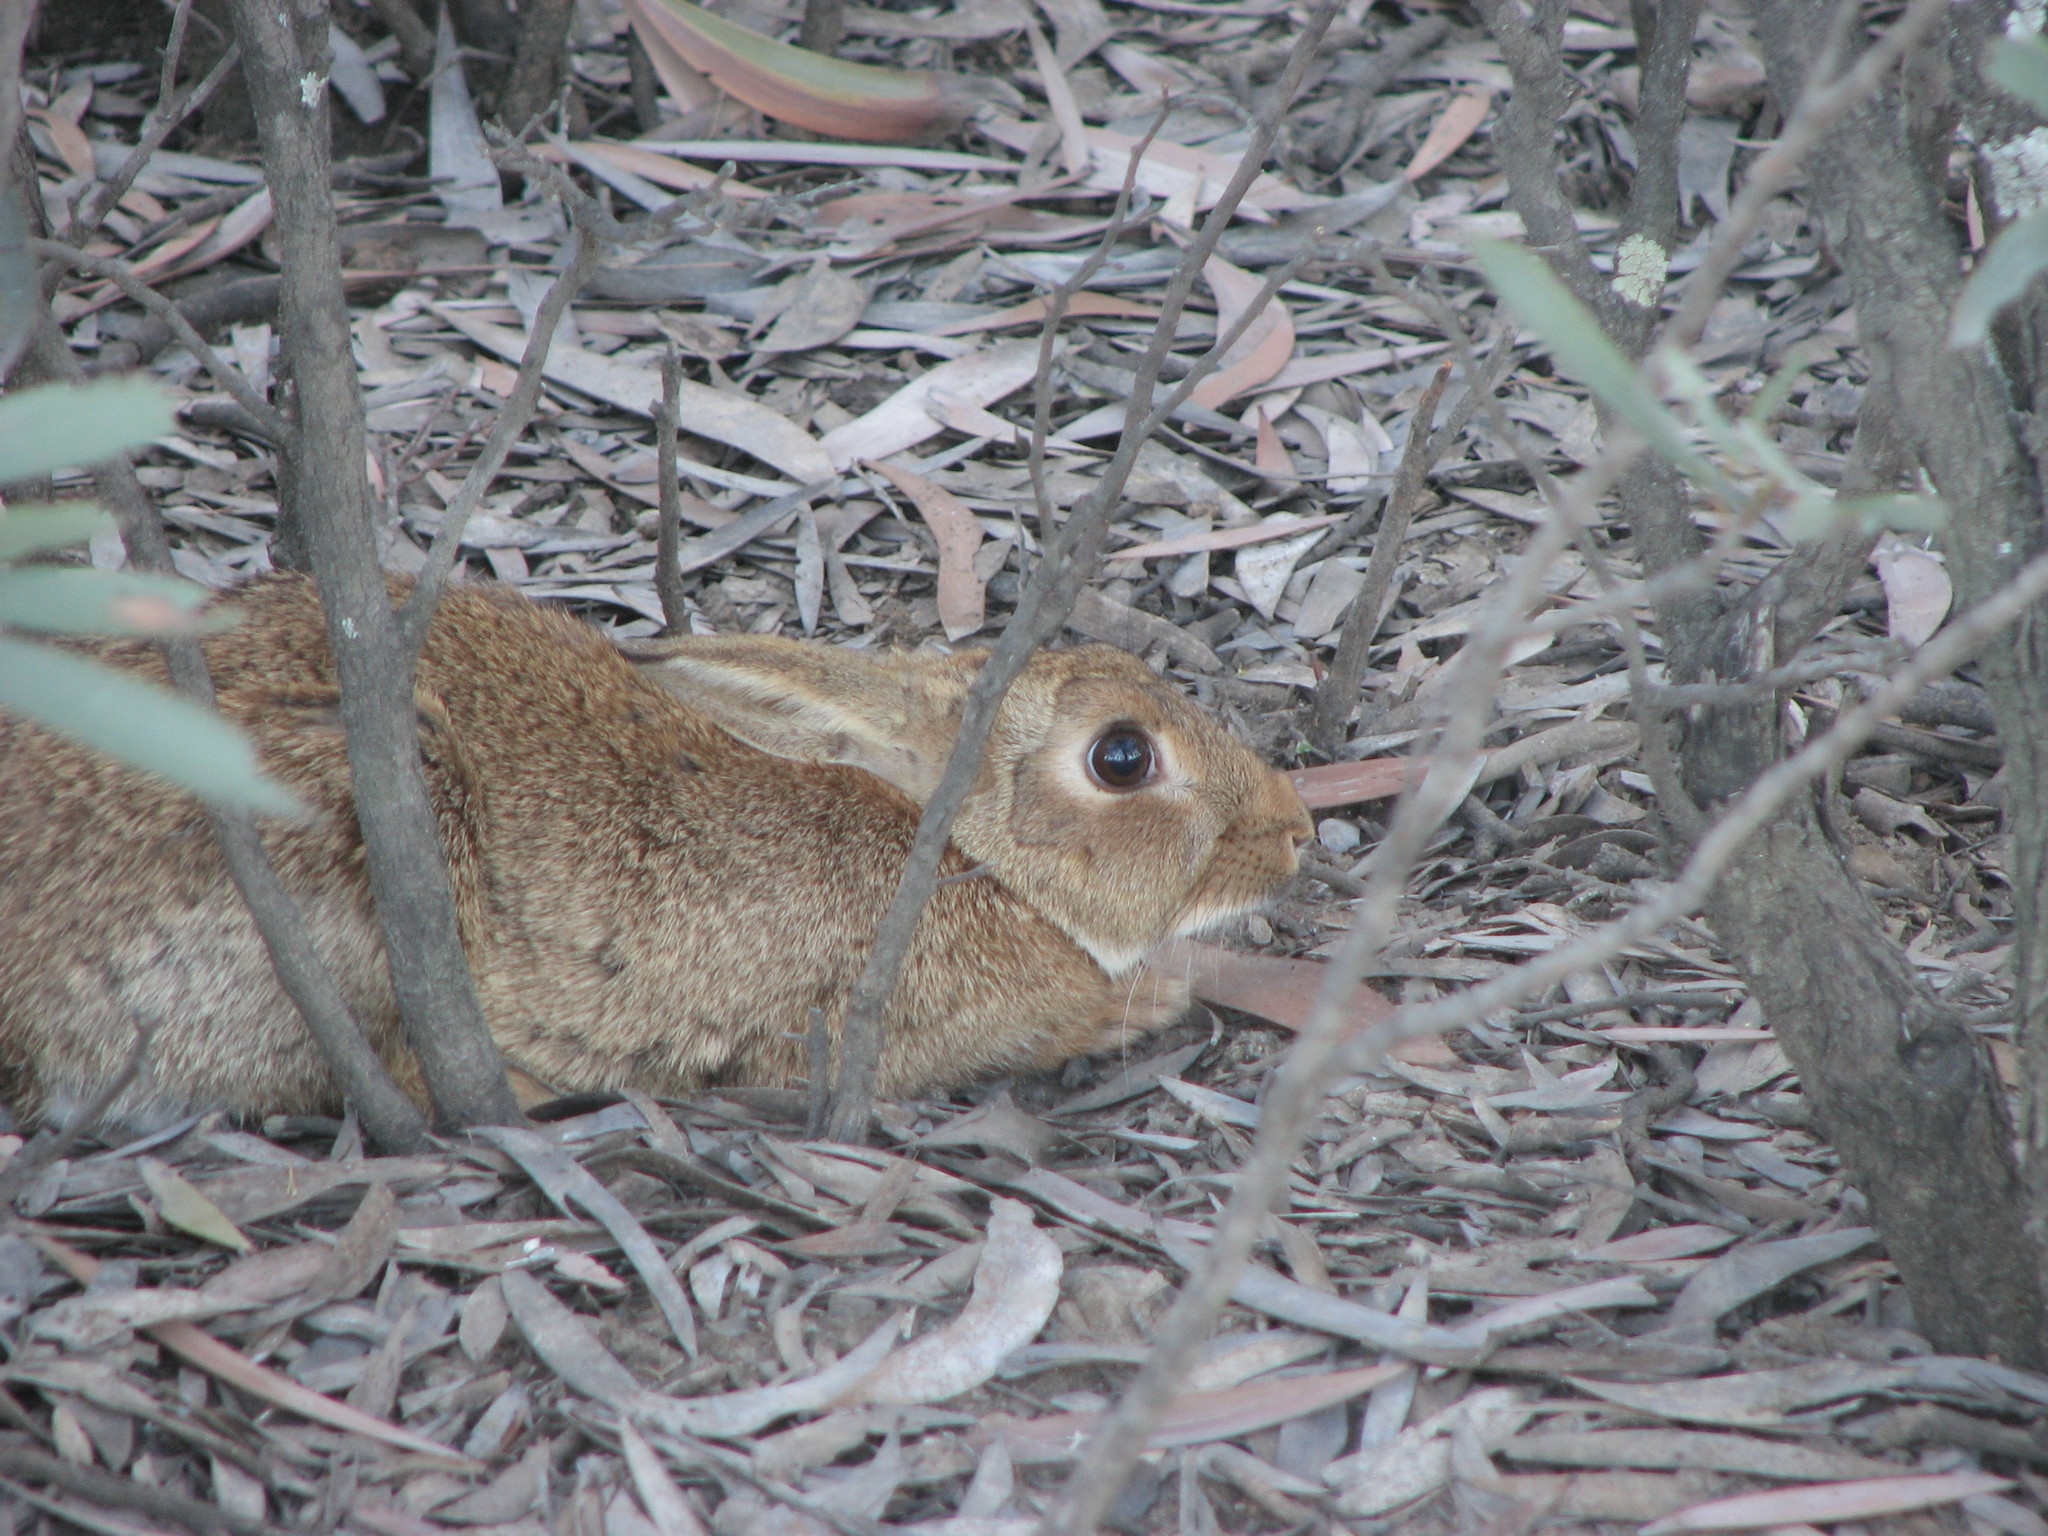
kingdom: Animalia
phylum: Chordata
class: Mammalia
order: Lagomorpha
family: Leporidae
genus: Oryctolagus
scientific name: Oryctolagus cuniculus
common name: European rabbit
